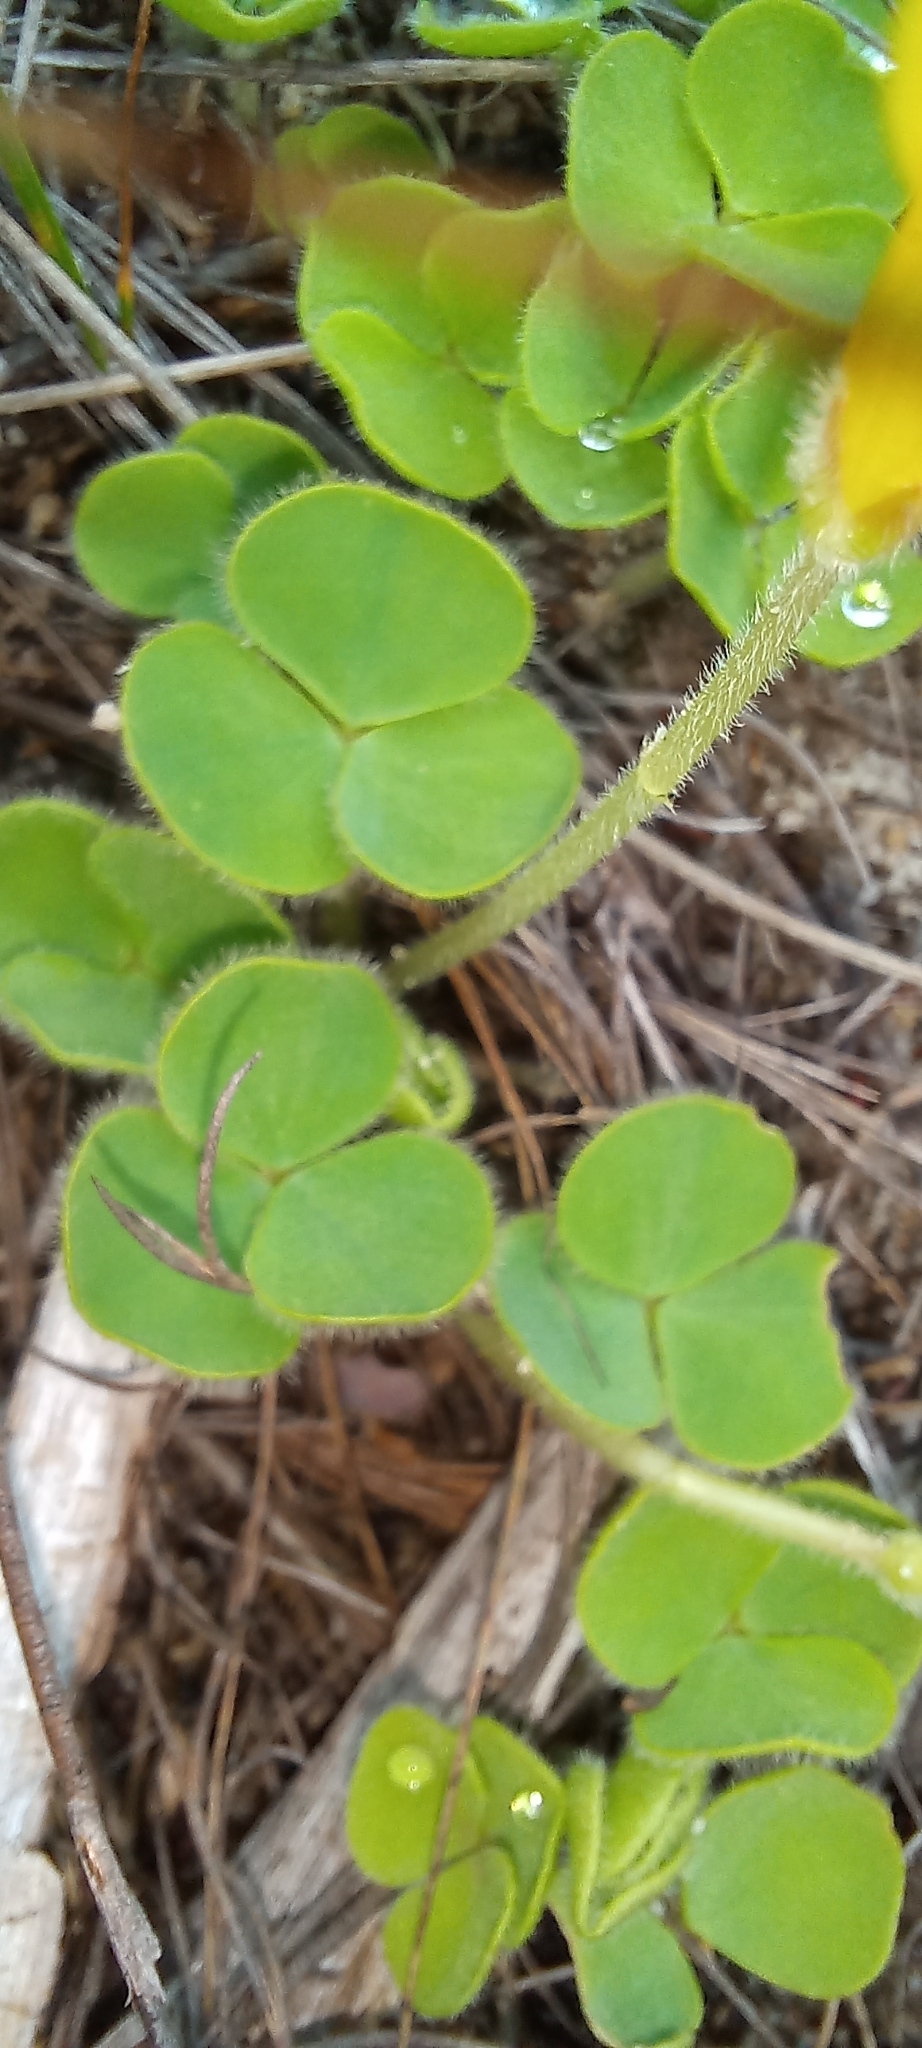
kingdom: Plantae
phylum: Tracheophyta
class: Magnoliopsida
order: Oxalidales
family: Oxalidaceae
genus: Oxalis
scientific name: Oxalis luteola
